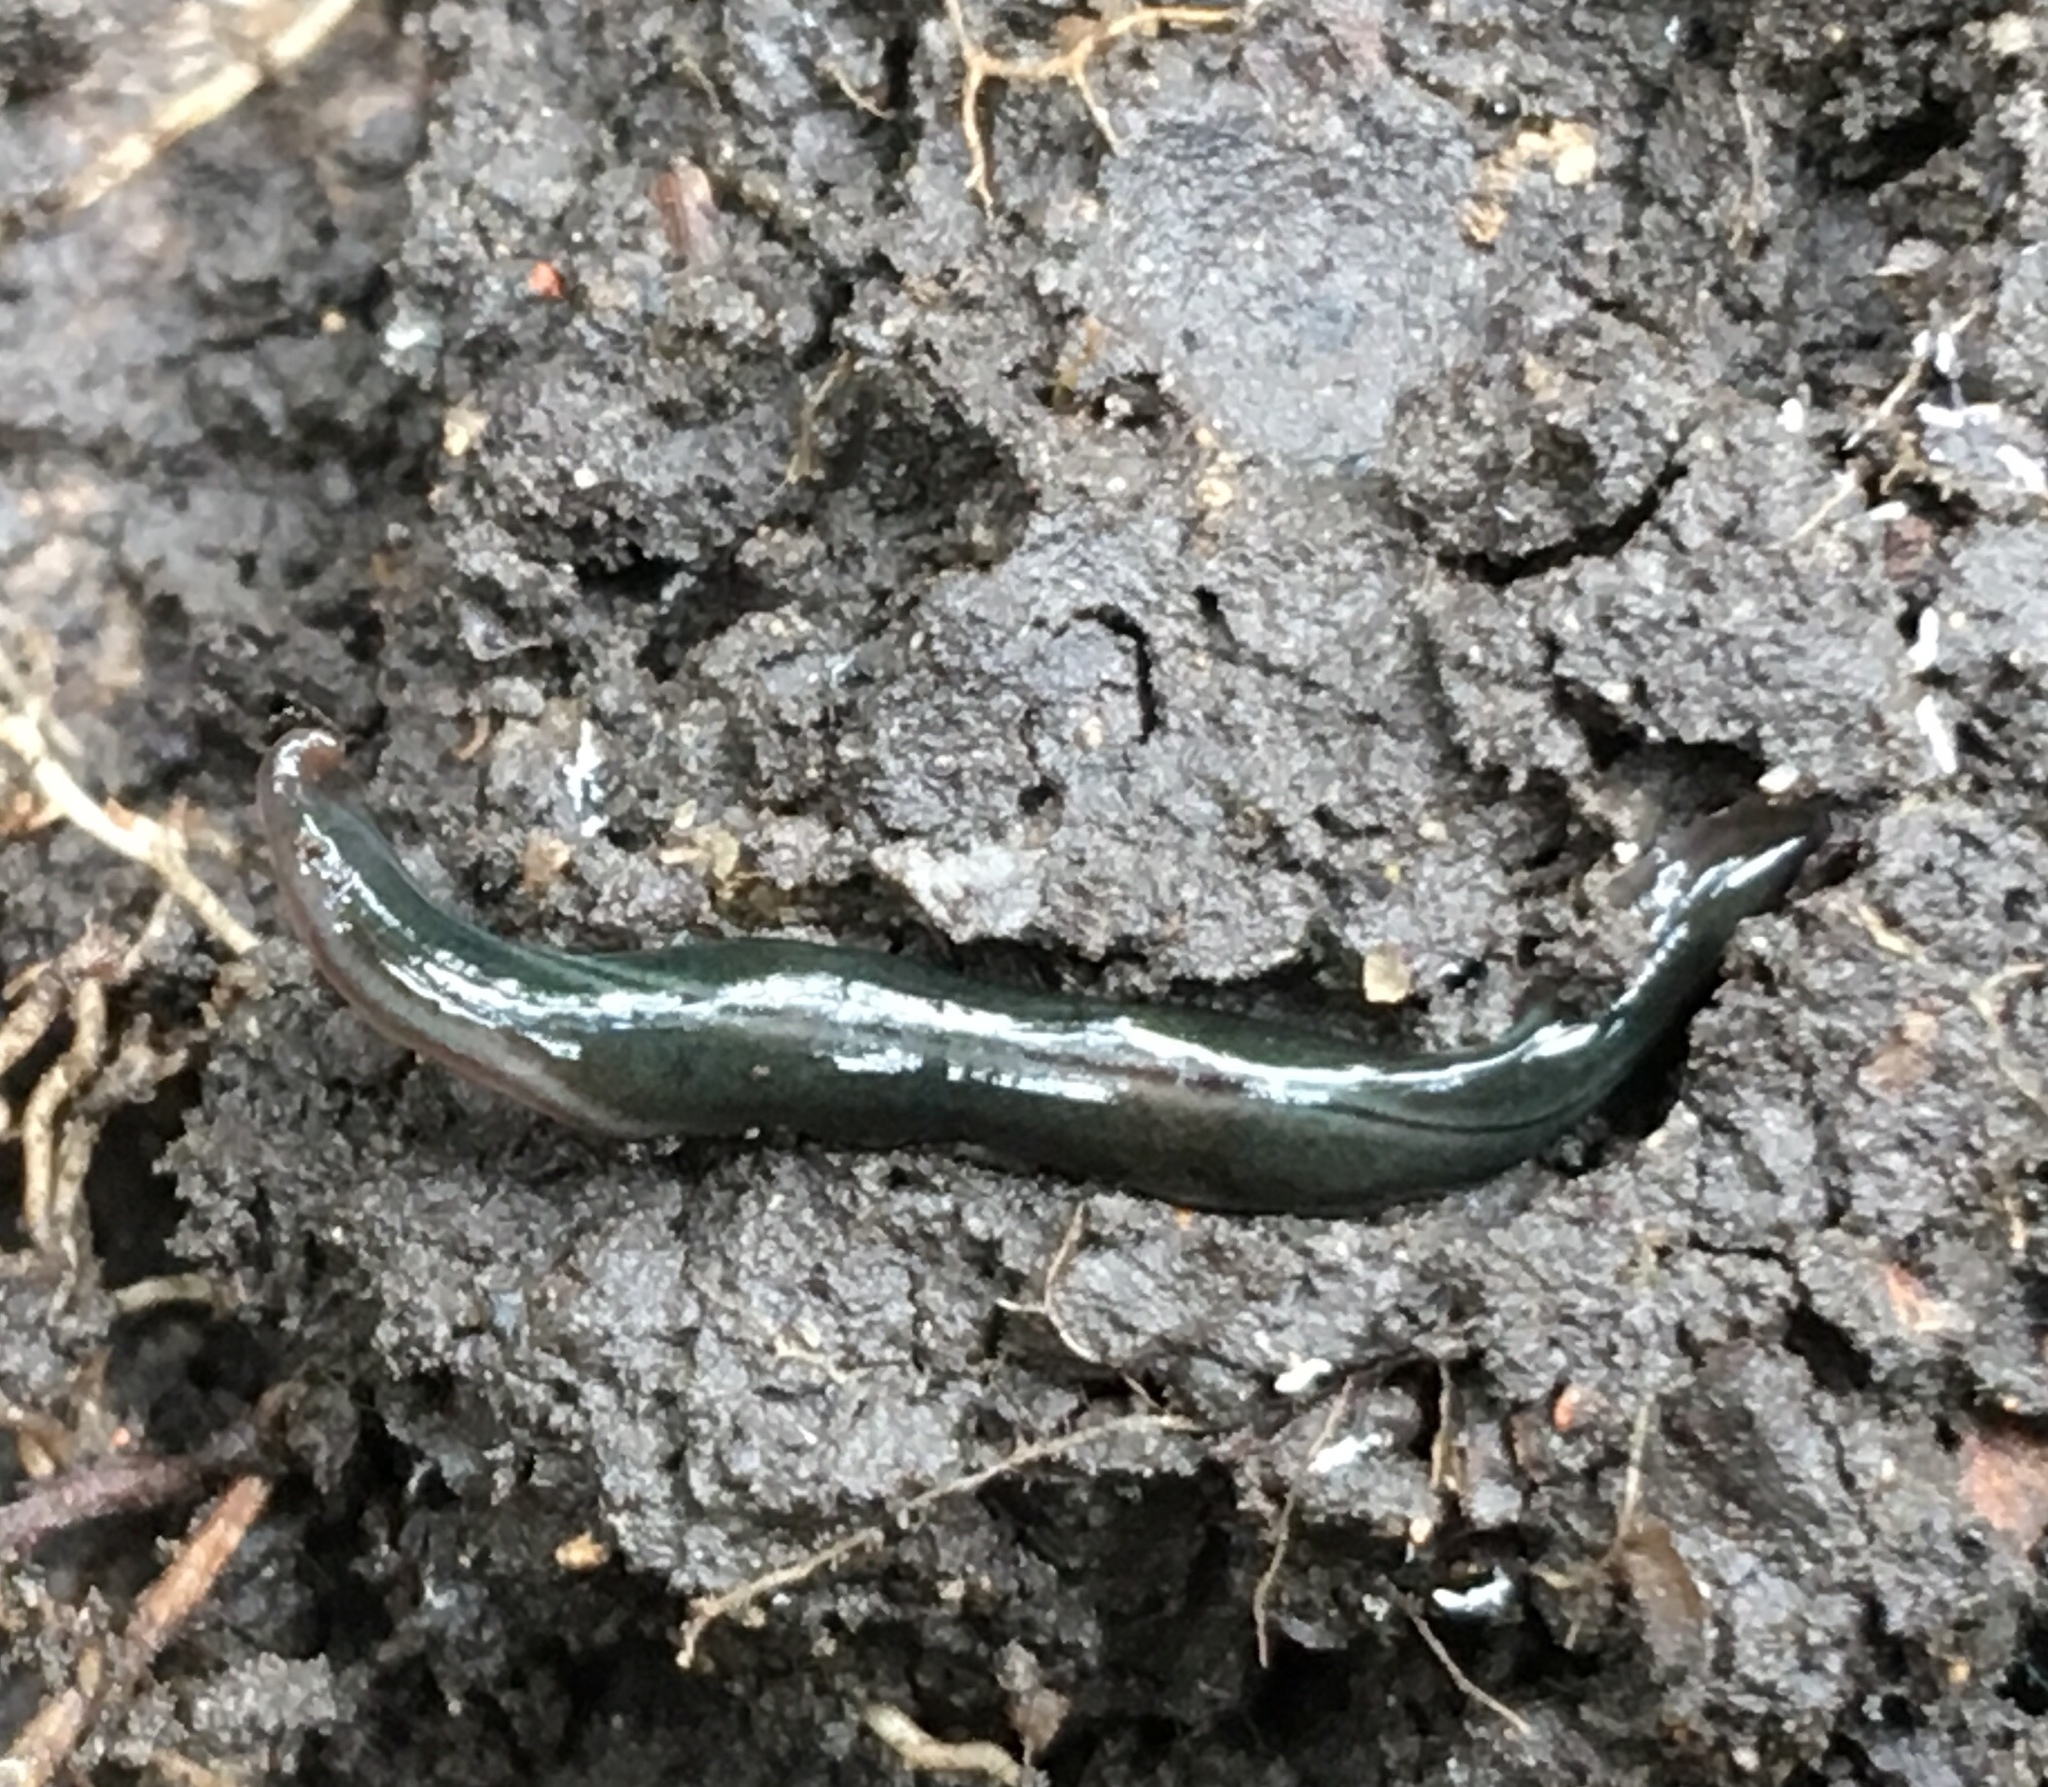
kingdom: Animalia
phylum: Platyhelminthes
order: Tricladida
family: Geoplanidae
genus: Parakontikia
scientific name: Parakontikia ventrolineata
